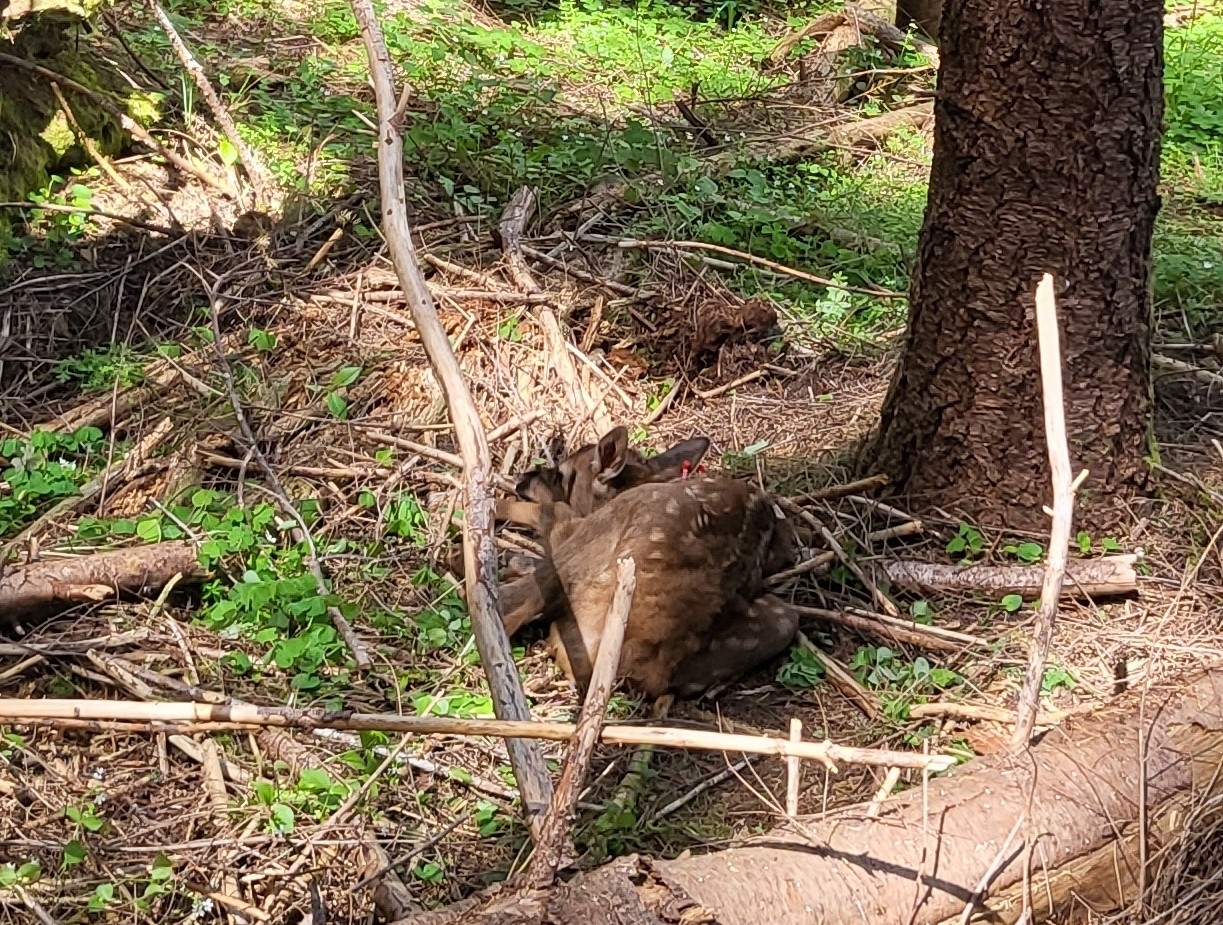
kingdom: Animalia
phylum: Chordata
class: Mammalia
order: Artiodactyla
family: Cervidae
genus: Cervus
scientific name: Cervus elaphus
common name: Red deer
